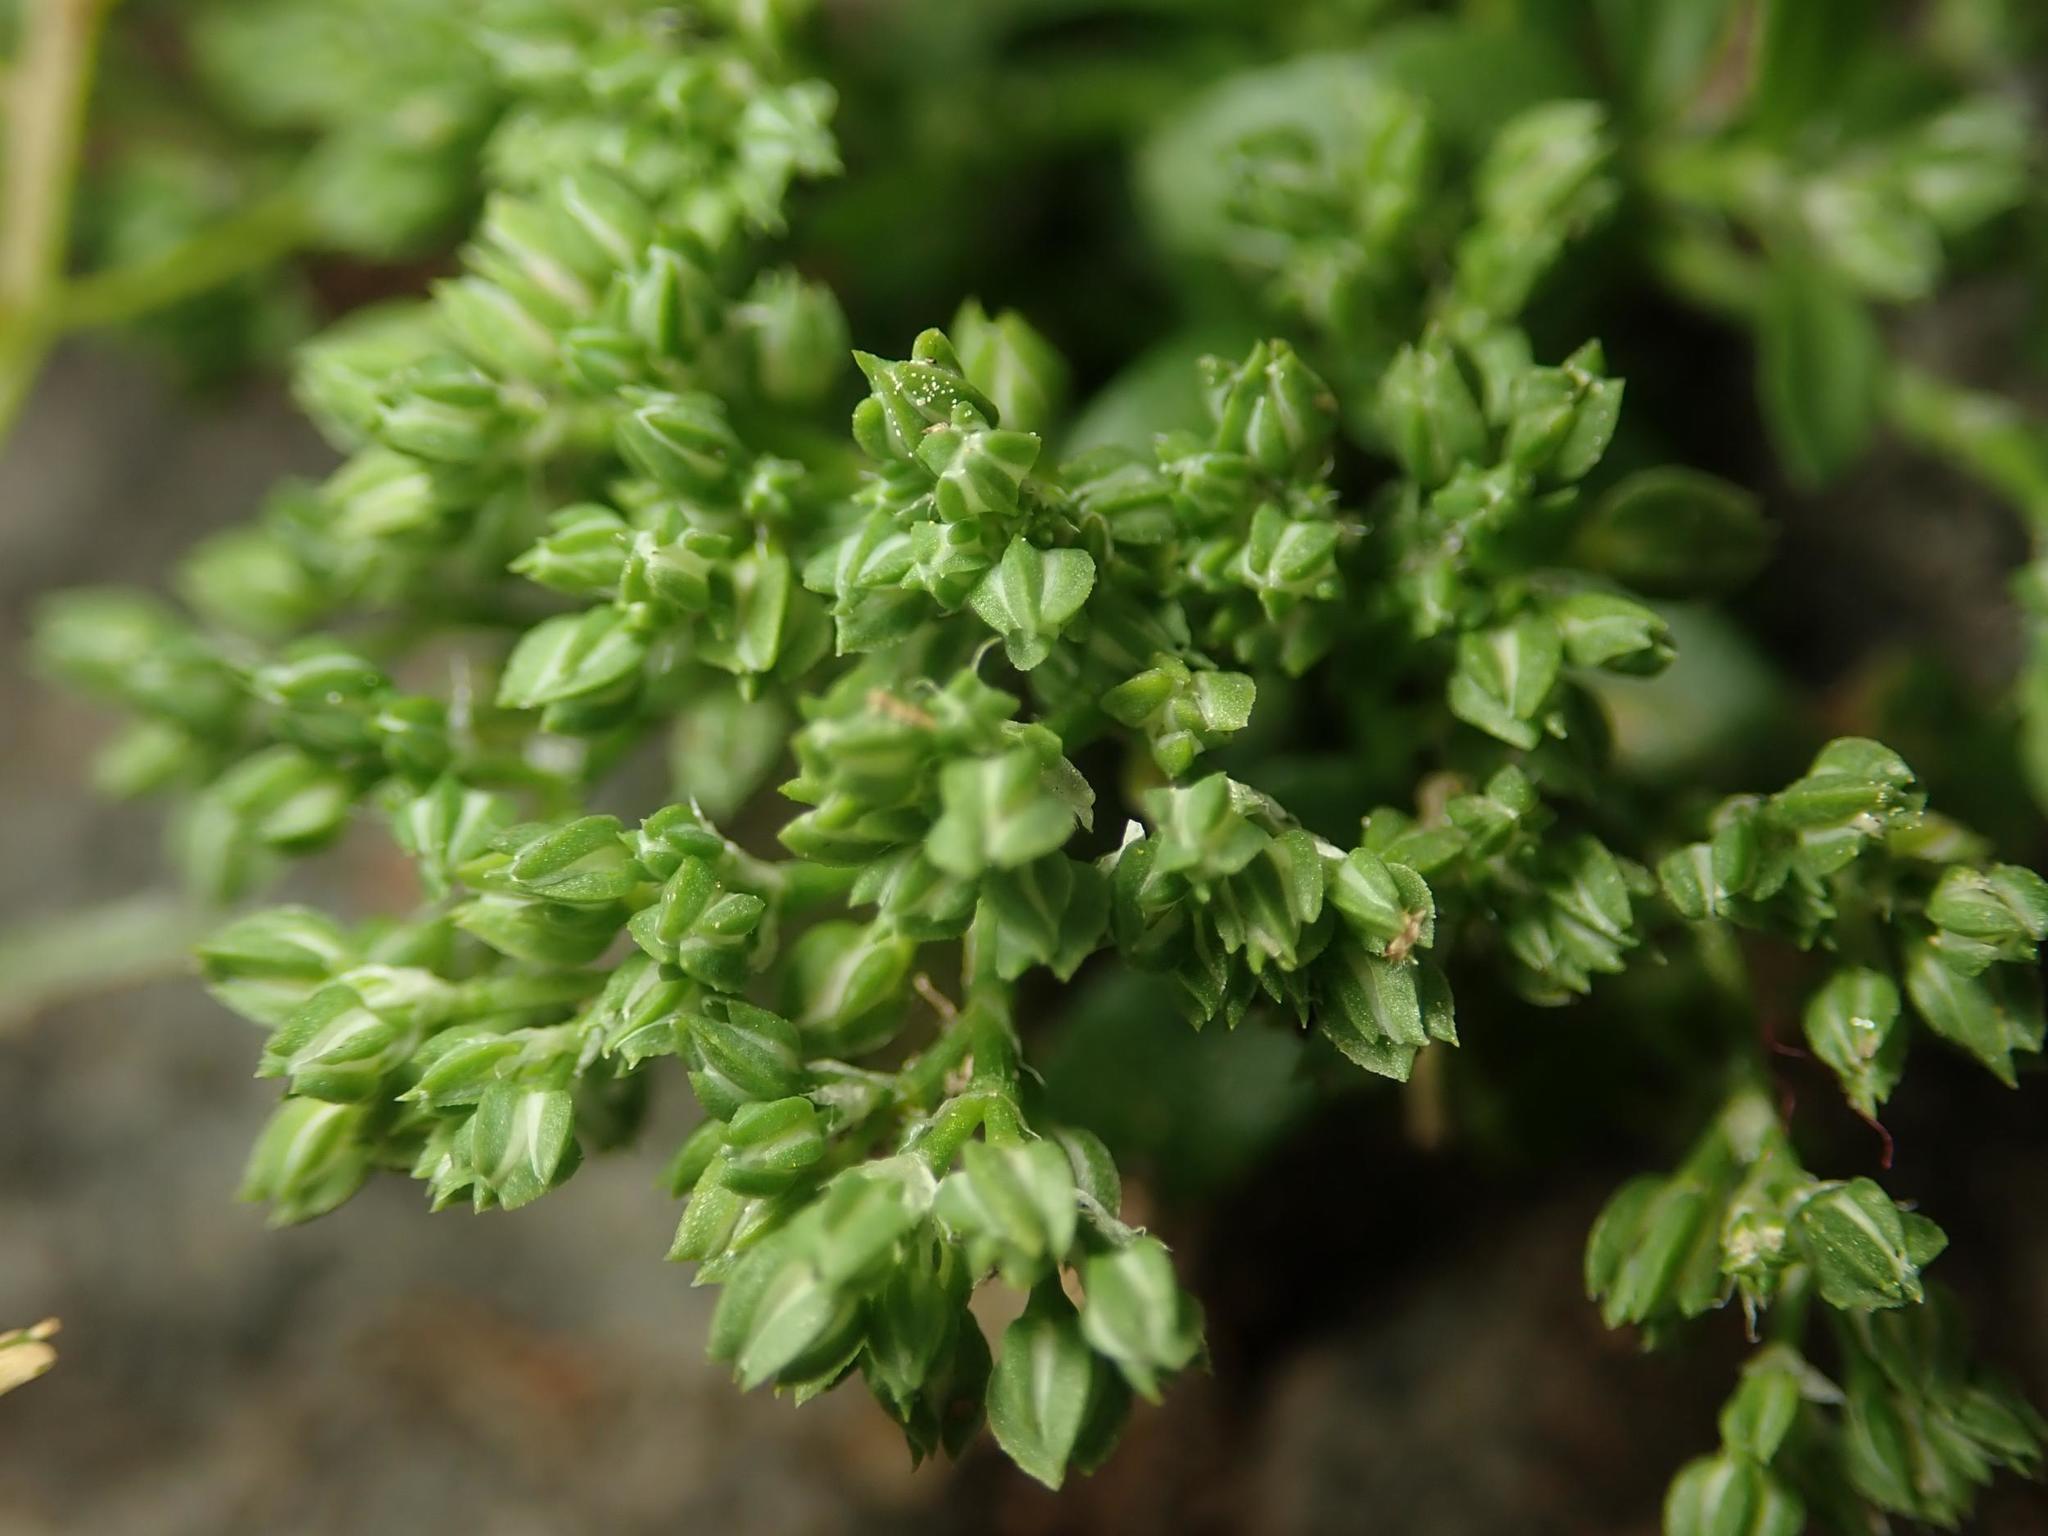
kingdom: Plantae
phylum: Tracheophyta
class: Magnoliopsida
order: Caryophyllales
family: Caryophyllaceae
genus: Polycarpon
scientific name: Polycarpon tetraphyllum
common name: Four-leaved all-seed
